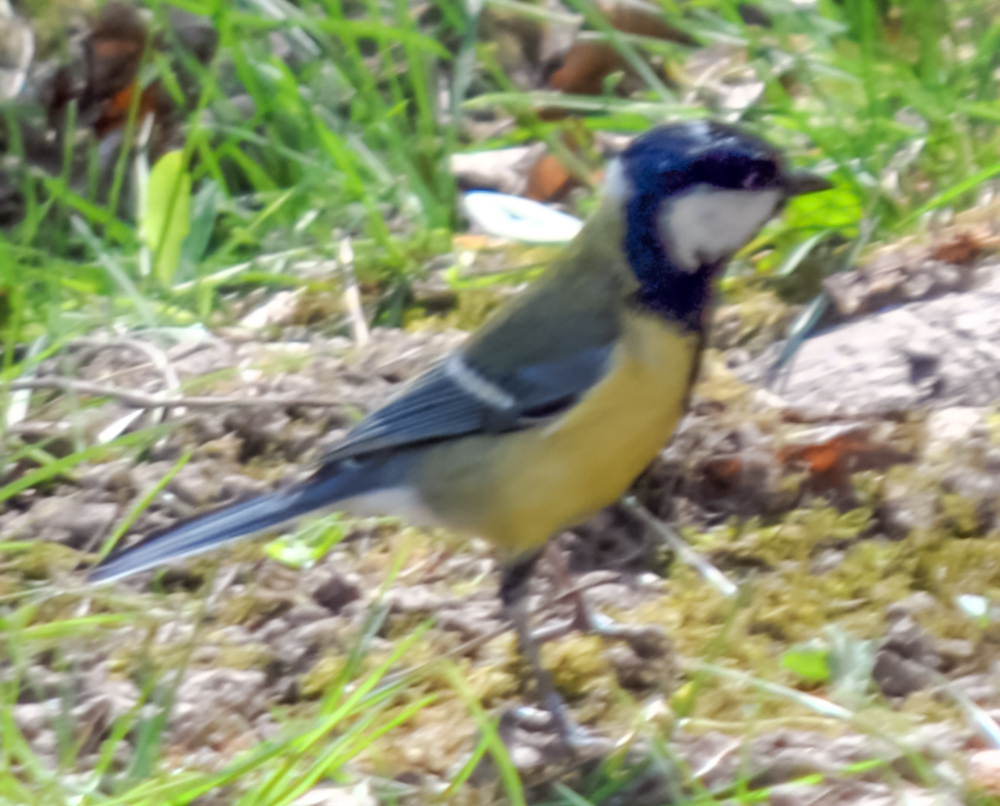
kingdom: Animalia
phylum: Chordata
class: Aves
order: Passeriformes
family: Paridae
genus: Parus
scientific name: Parus major
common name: Great tit
